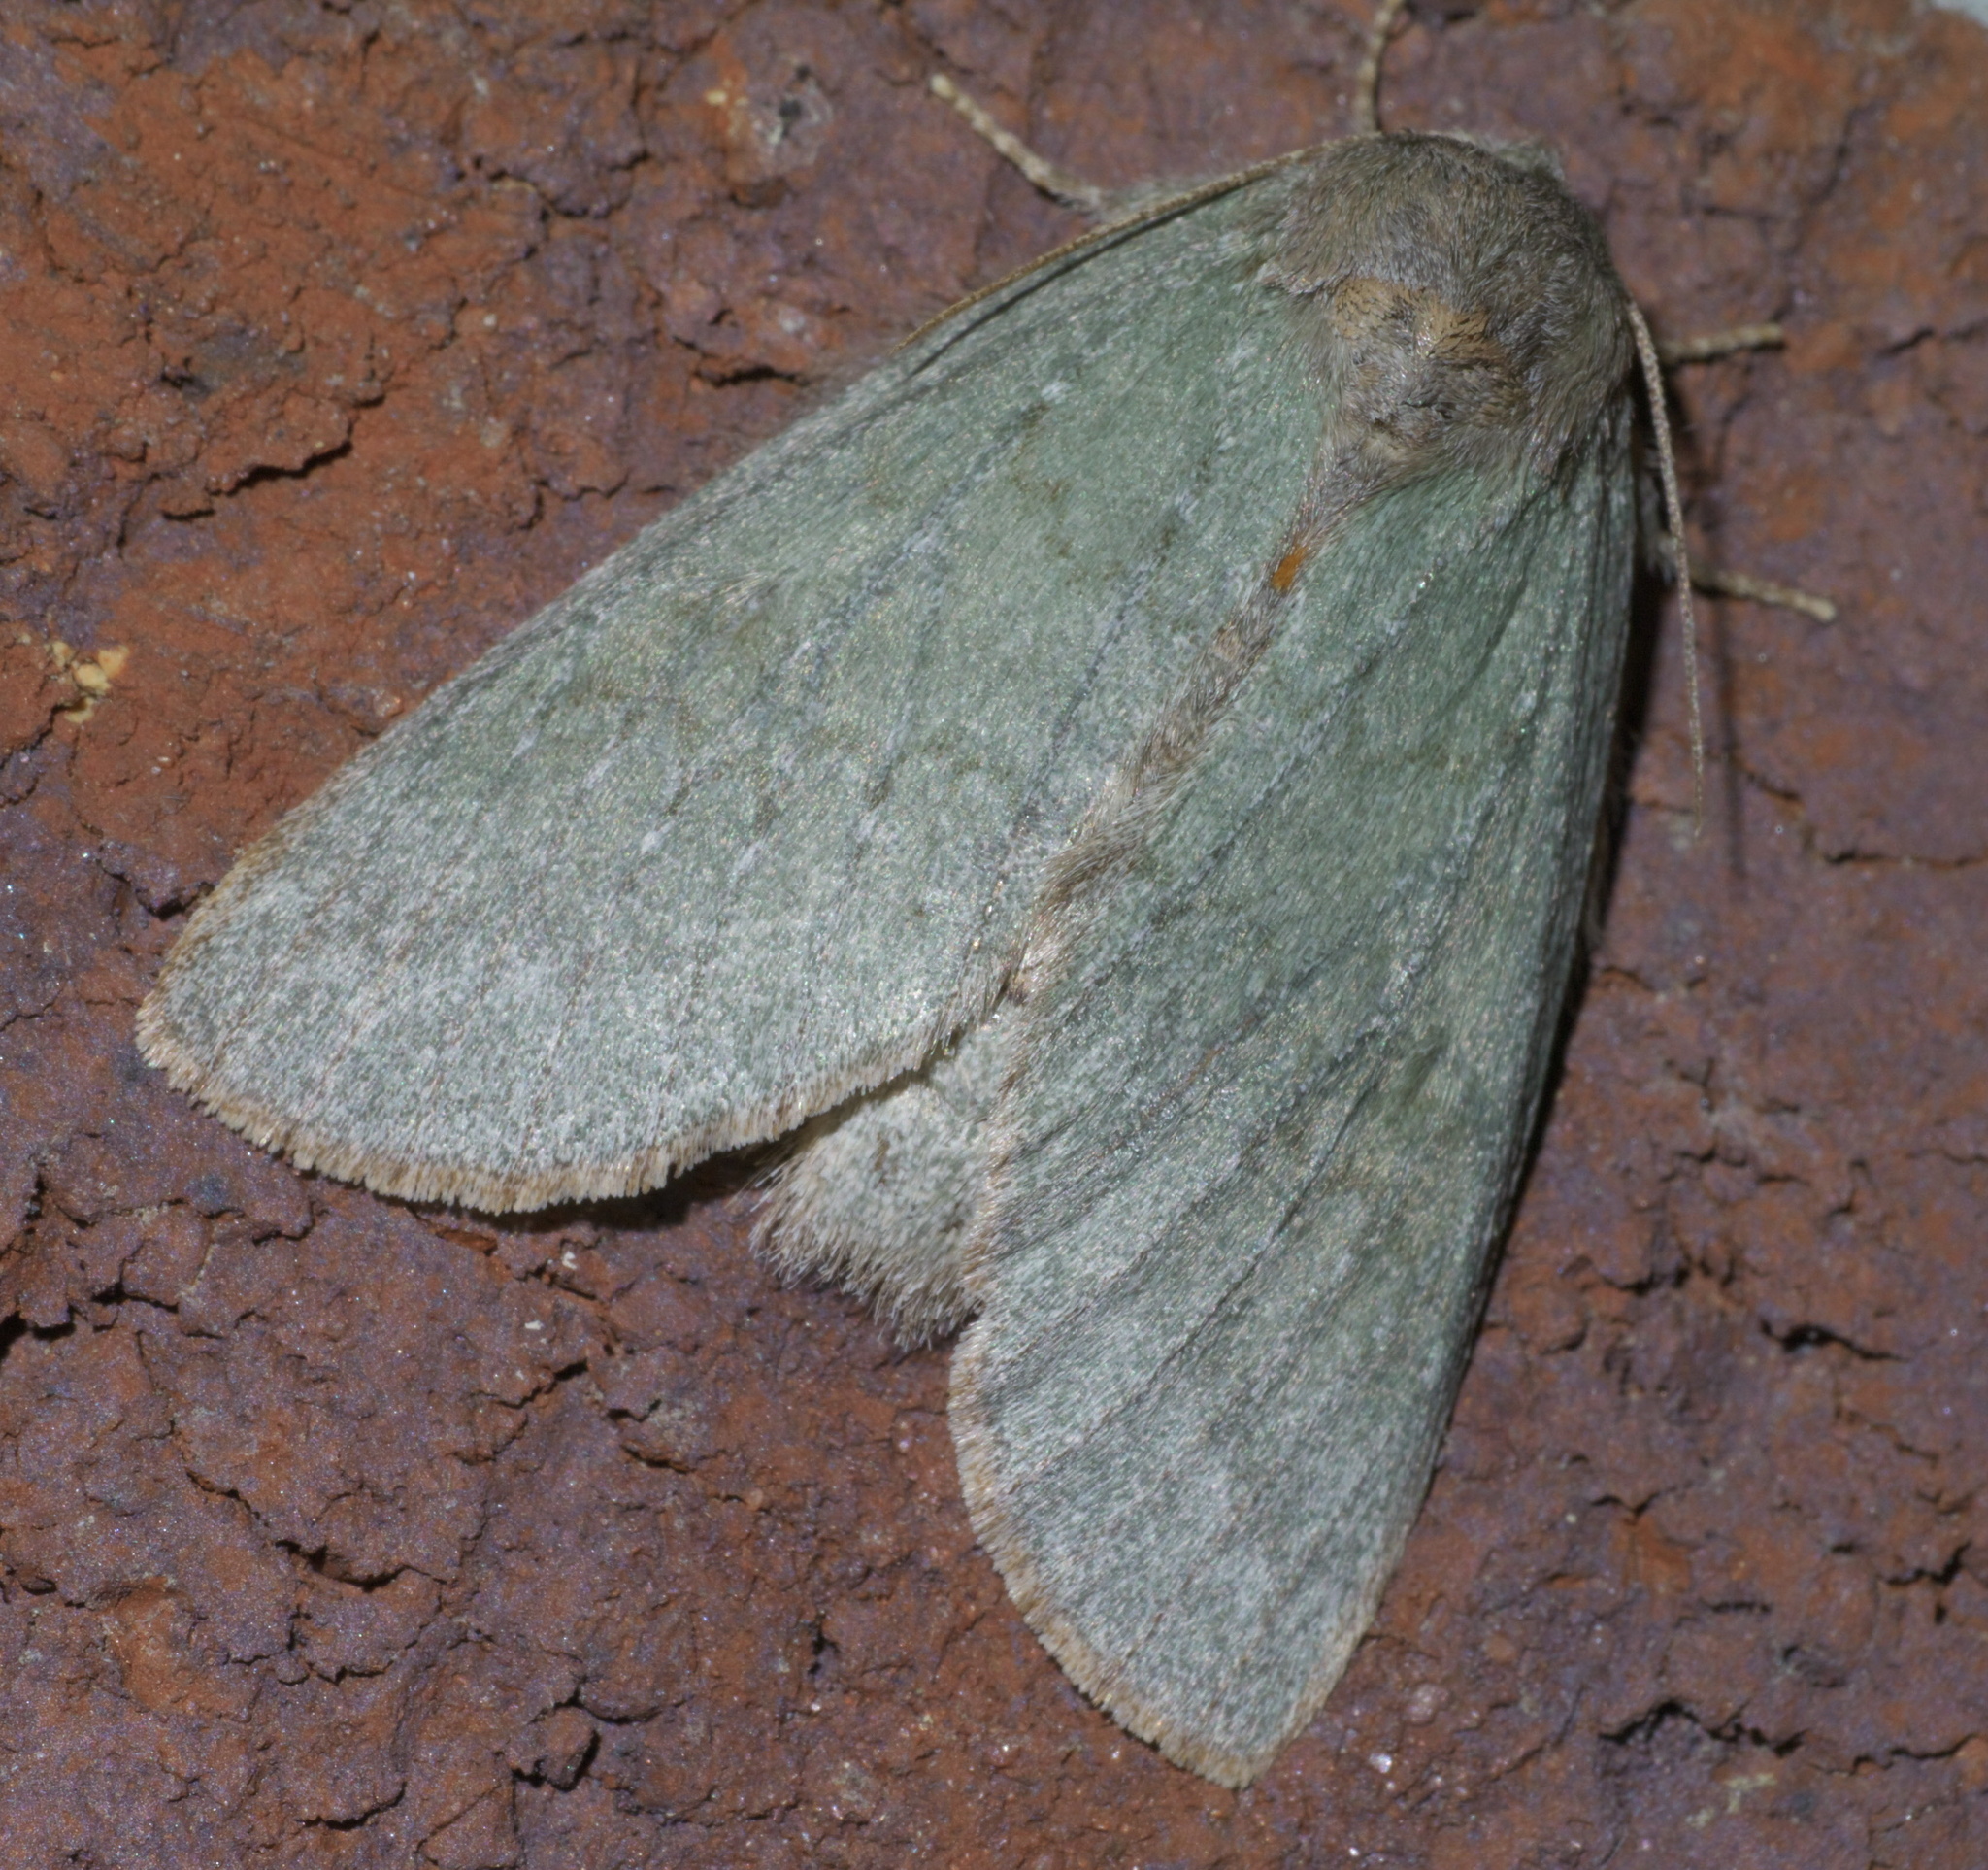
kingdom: Animalia
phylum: Arthropoda
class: Insecta
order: Lepidoptera
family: Notodontidae
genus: Misogada
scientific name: Misogada unicolor
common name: Drab prominent
